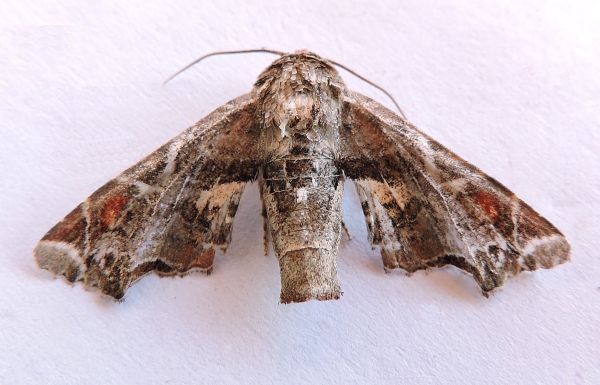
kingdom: Animalia
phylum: Arthropoda
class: Insecta
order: Lepidoptera
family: Euteliidae
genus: Eutelia
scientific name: Eutelia furcata
